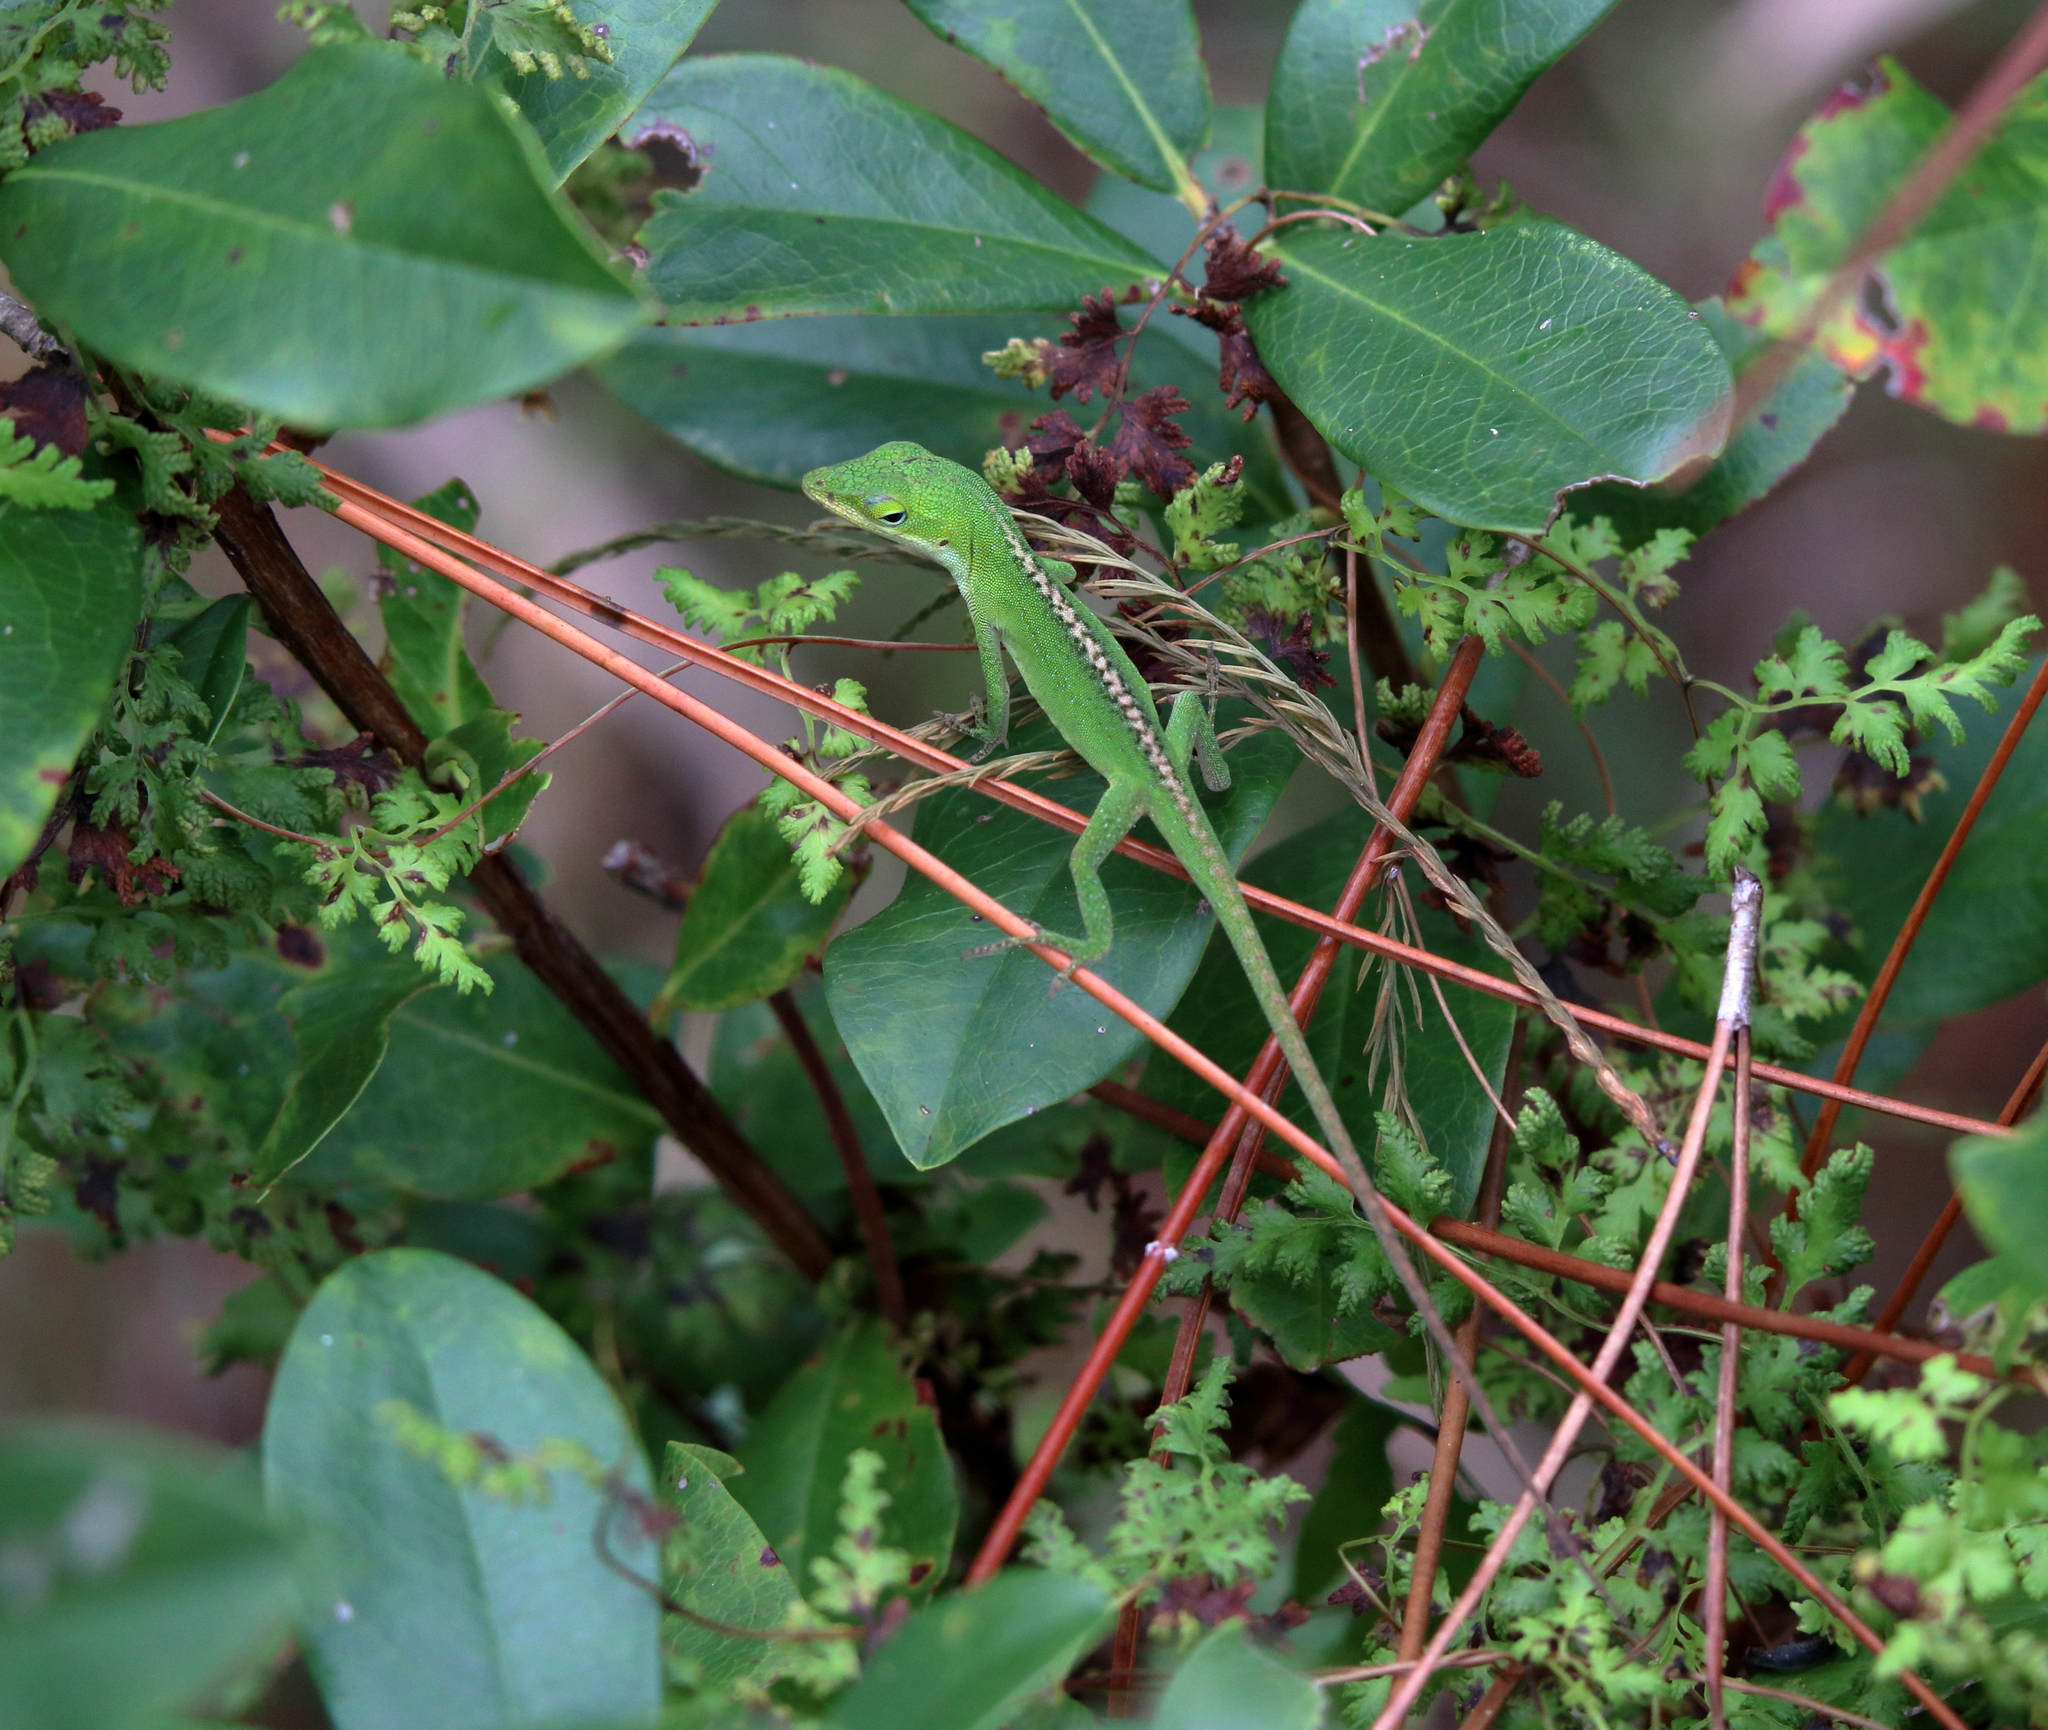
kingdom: Animalia
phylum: Chordata
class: Squamata
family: Dactyloidae
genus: Anolis
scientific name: Anolis carolinensis
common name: Green anole
